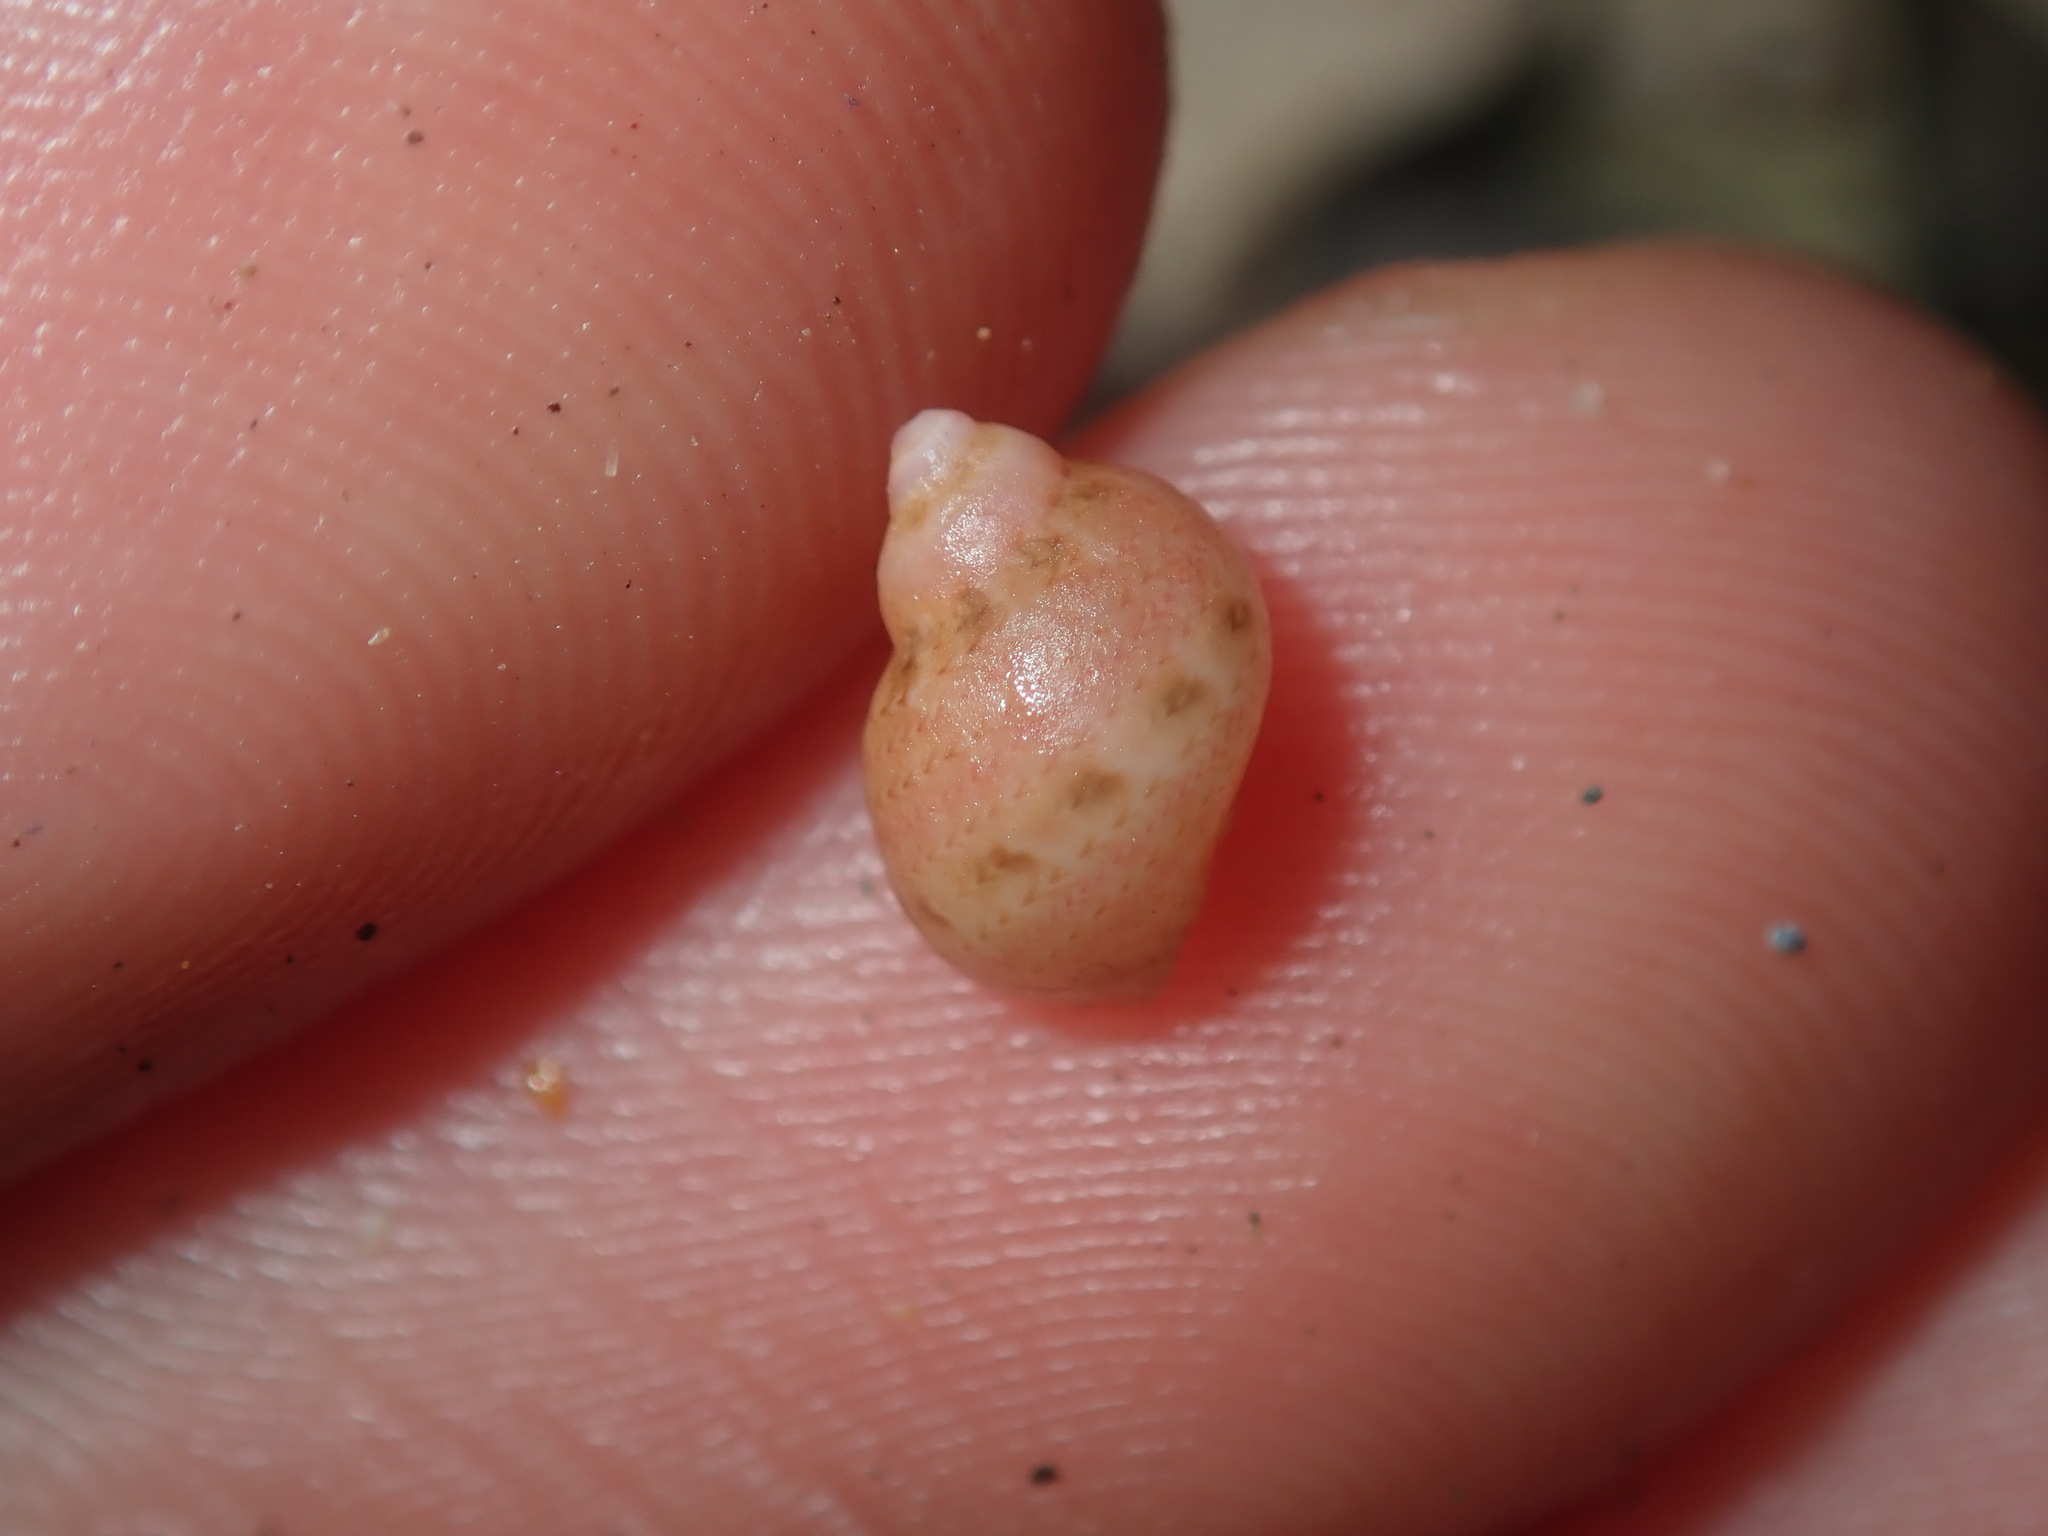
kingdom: Animalia
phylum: Mollusca
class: Gastropoda
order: Trochida
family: Phasianellidae
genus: Phasianella
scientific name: Phasianella ventricosa
